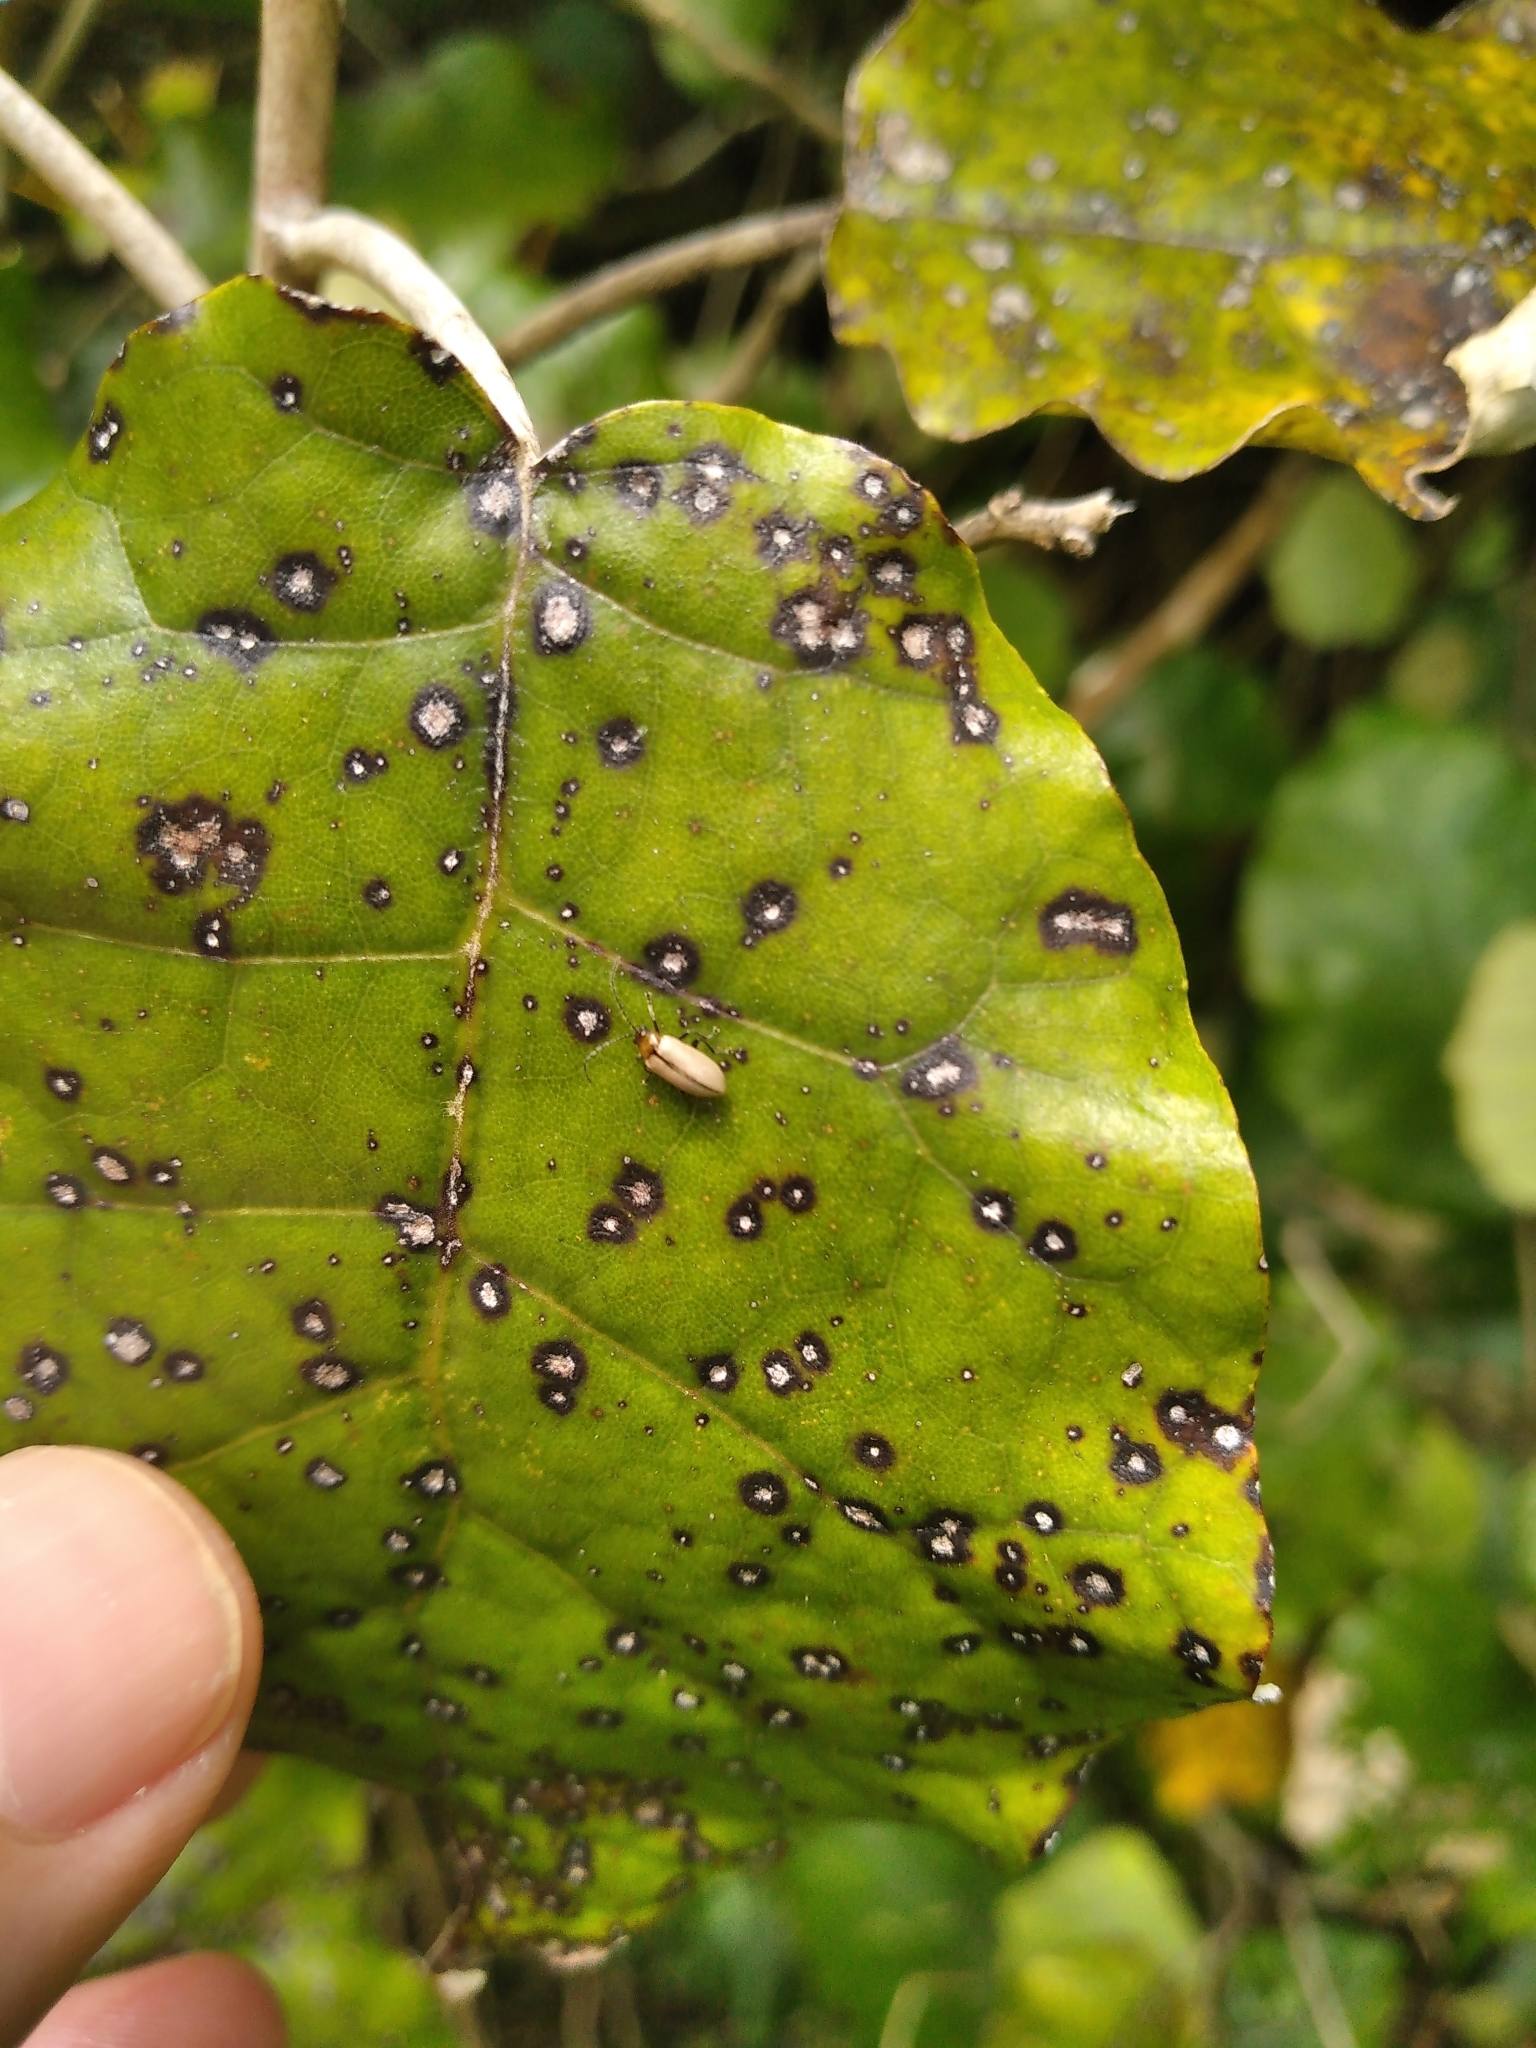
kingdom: Animalia
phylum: Arthropoda
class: Insecta
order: Coleoptera
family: Chrysomelidae
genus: Adoxia
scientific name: Adoxia
